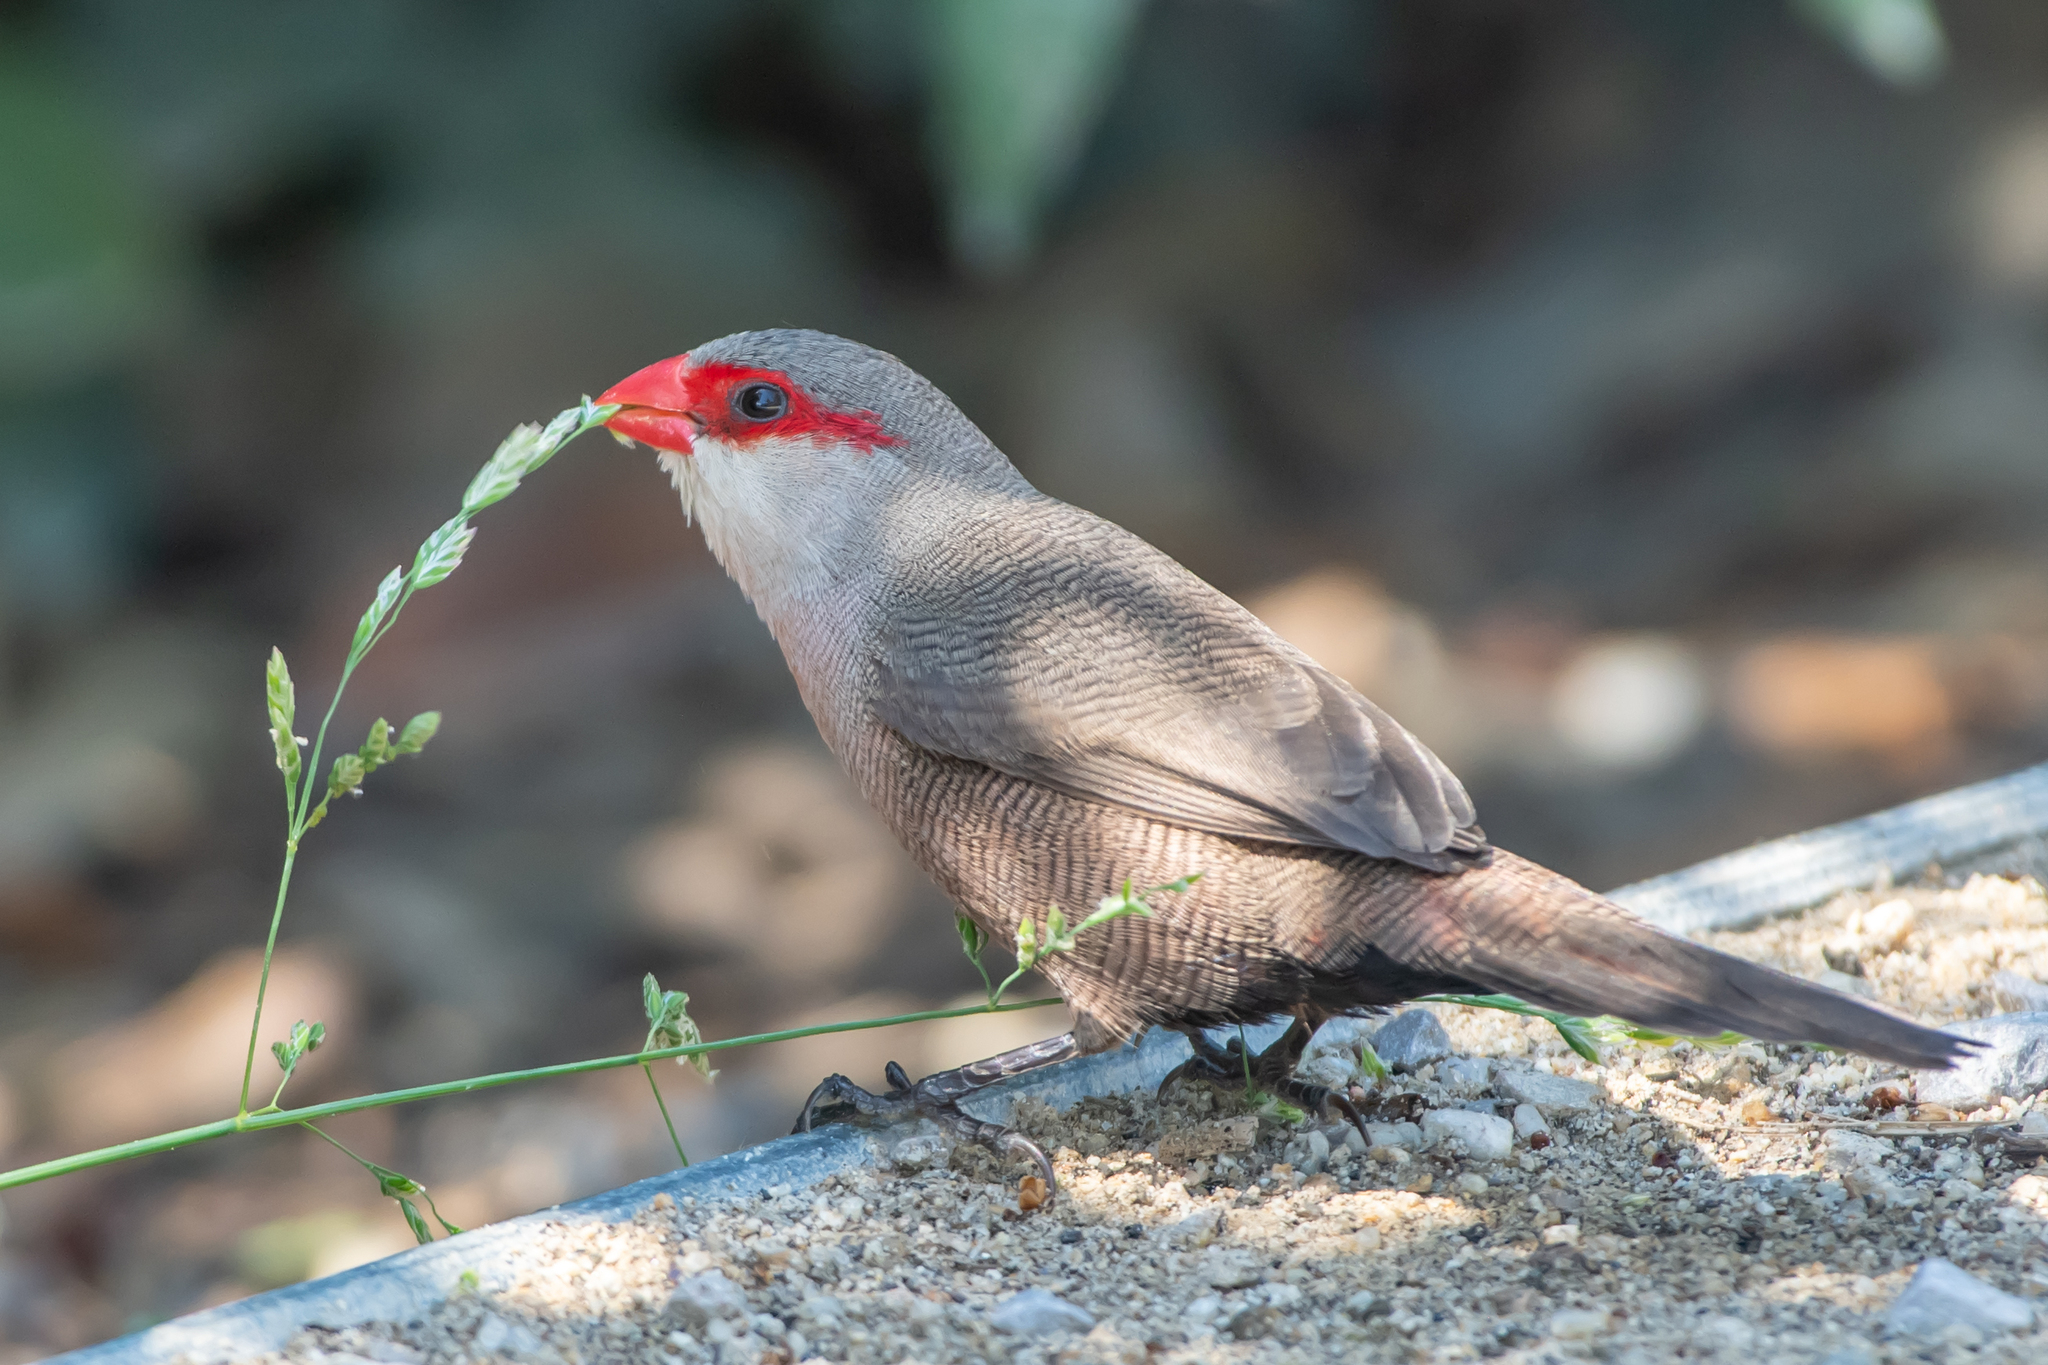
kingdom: Animalia
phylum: Chordata
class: Aves
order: Passeriformes
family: Estrildidae
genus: Estrilda
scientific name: Estrilda astrild
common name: Common waxbill
